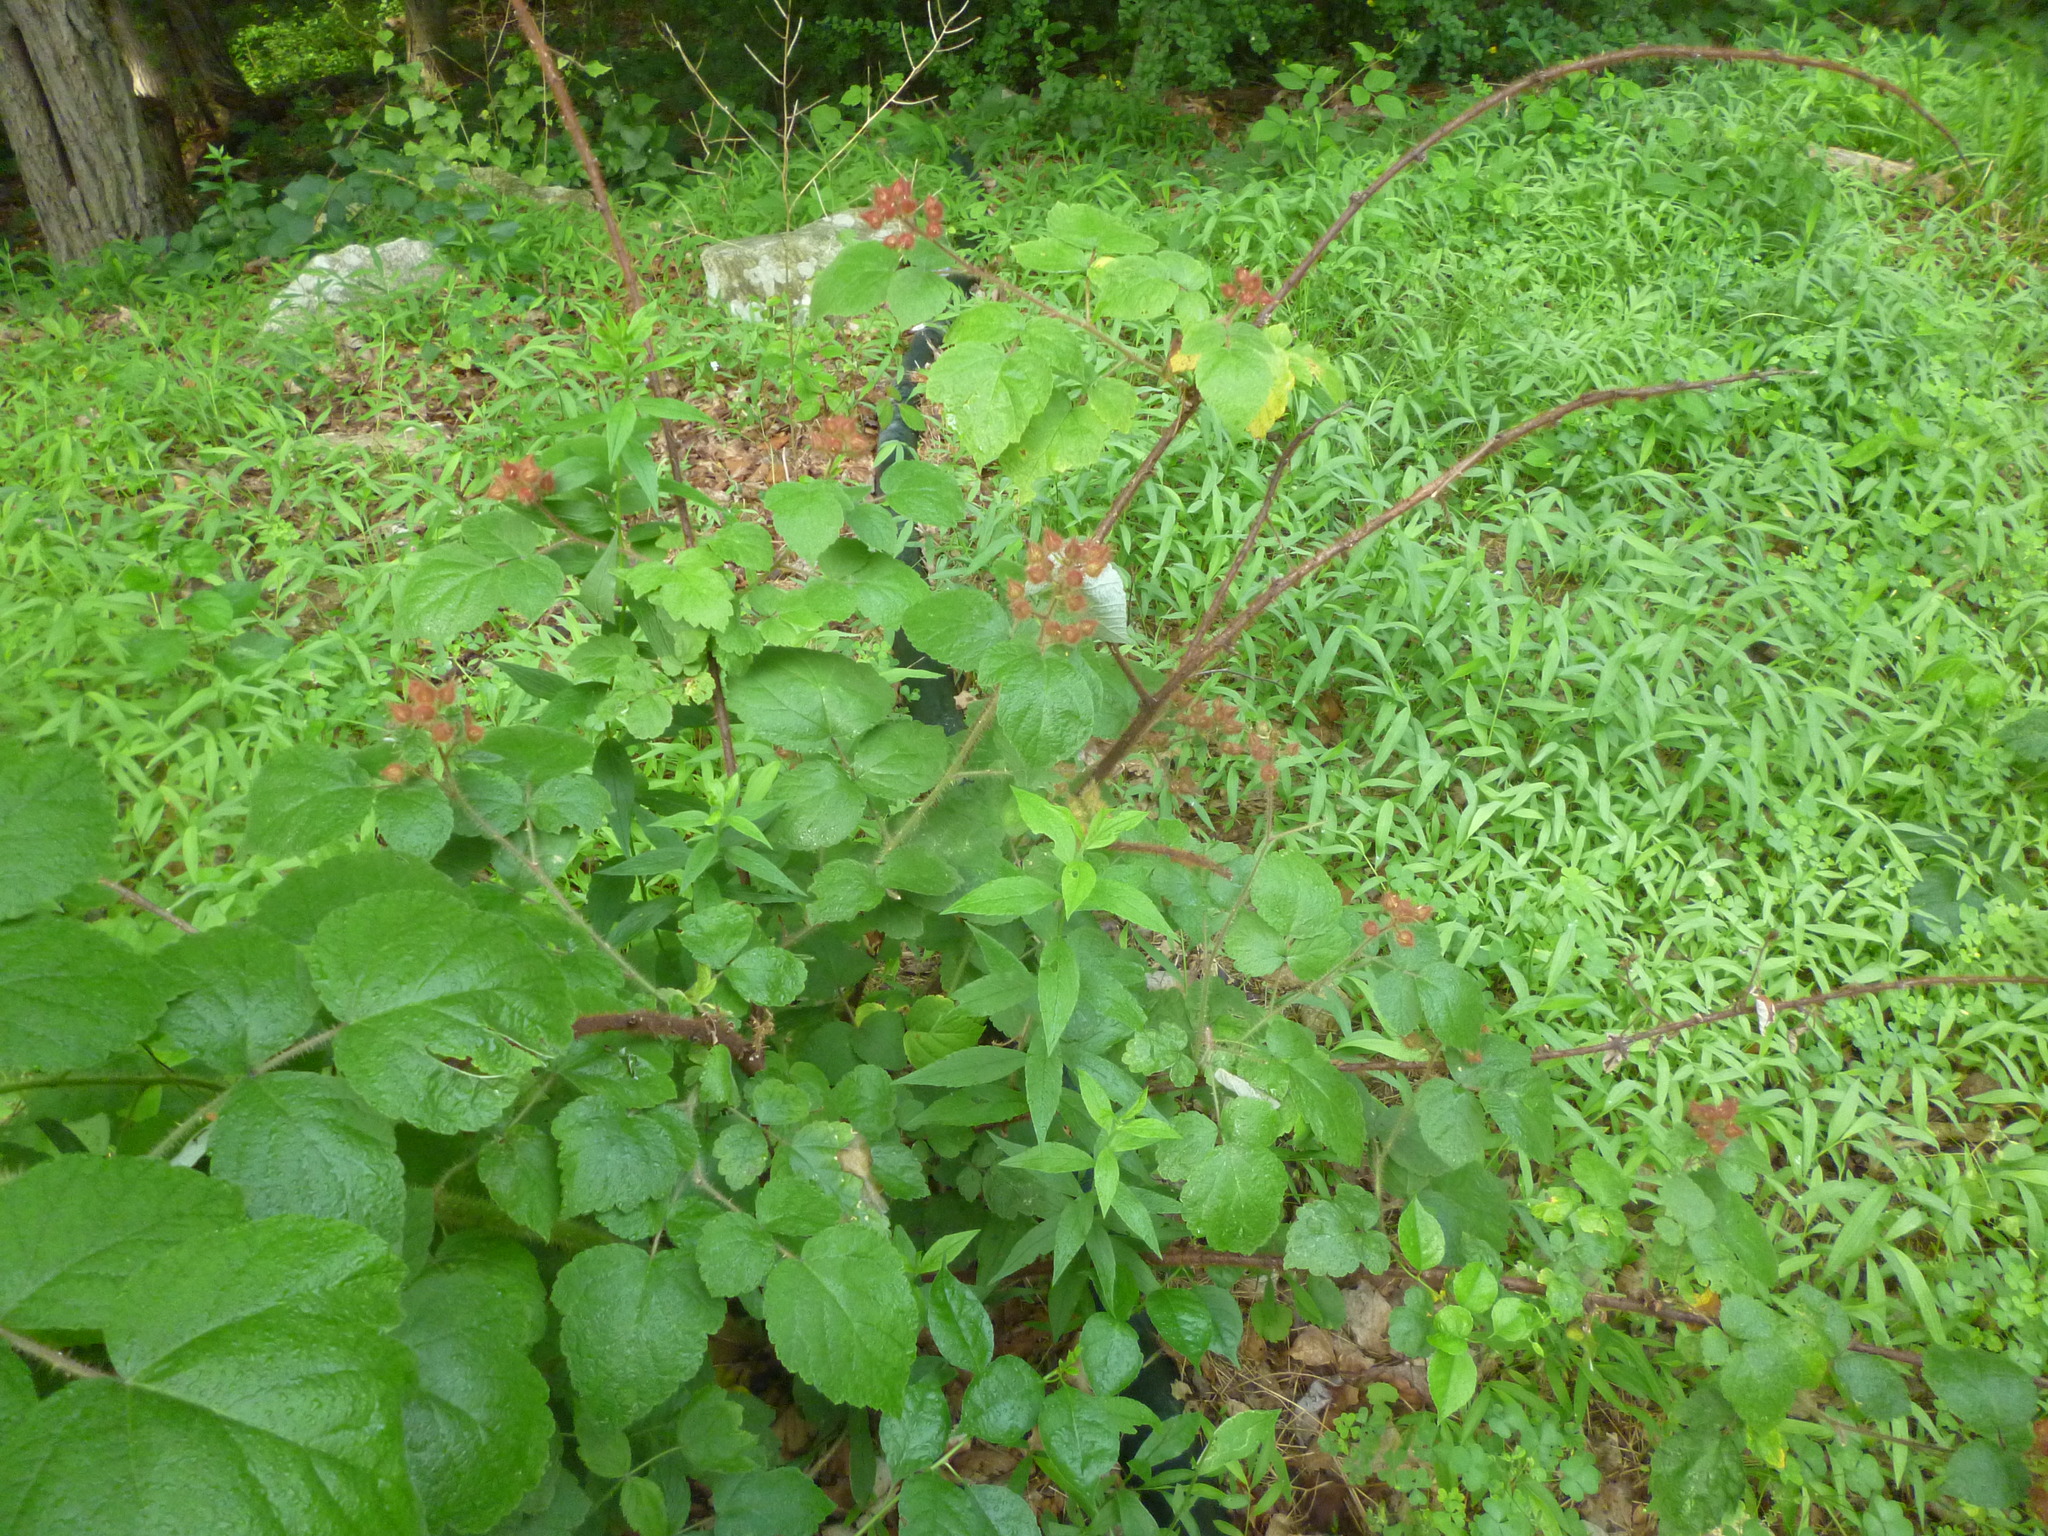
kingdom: Plantae
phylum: Tracheophyta
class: Magnoliopsida
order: Rosales
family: Rosaceae
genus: Rubus
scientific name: Rubus phoenicolasius
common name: Japanese wineberry
